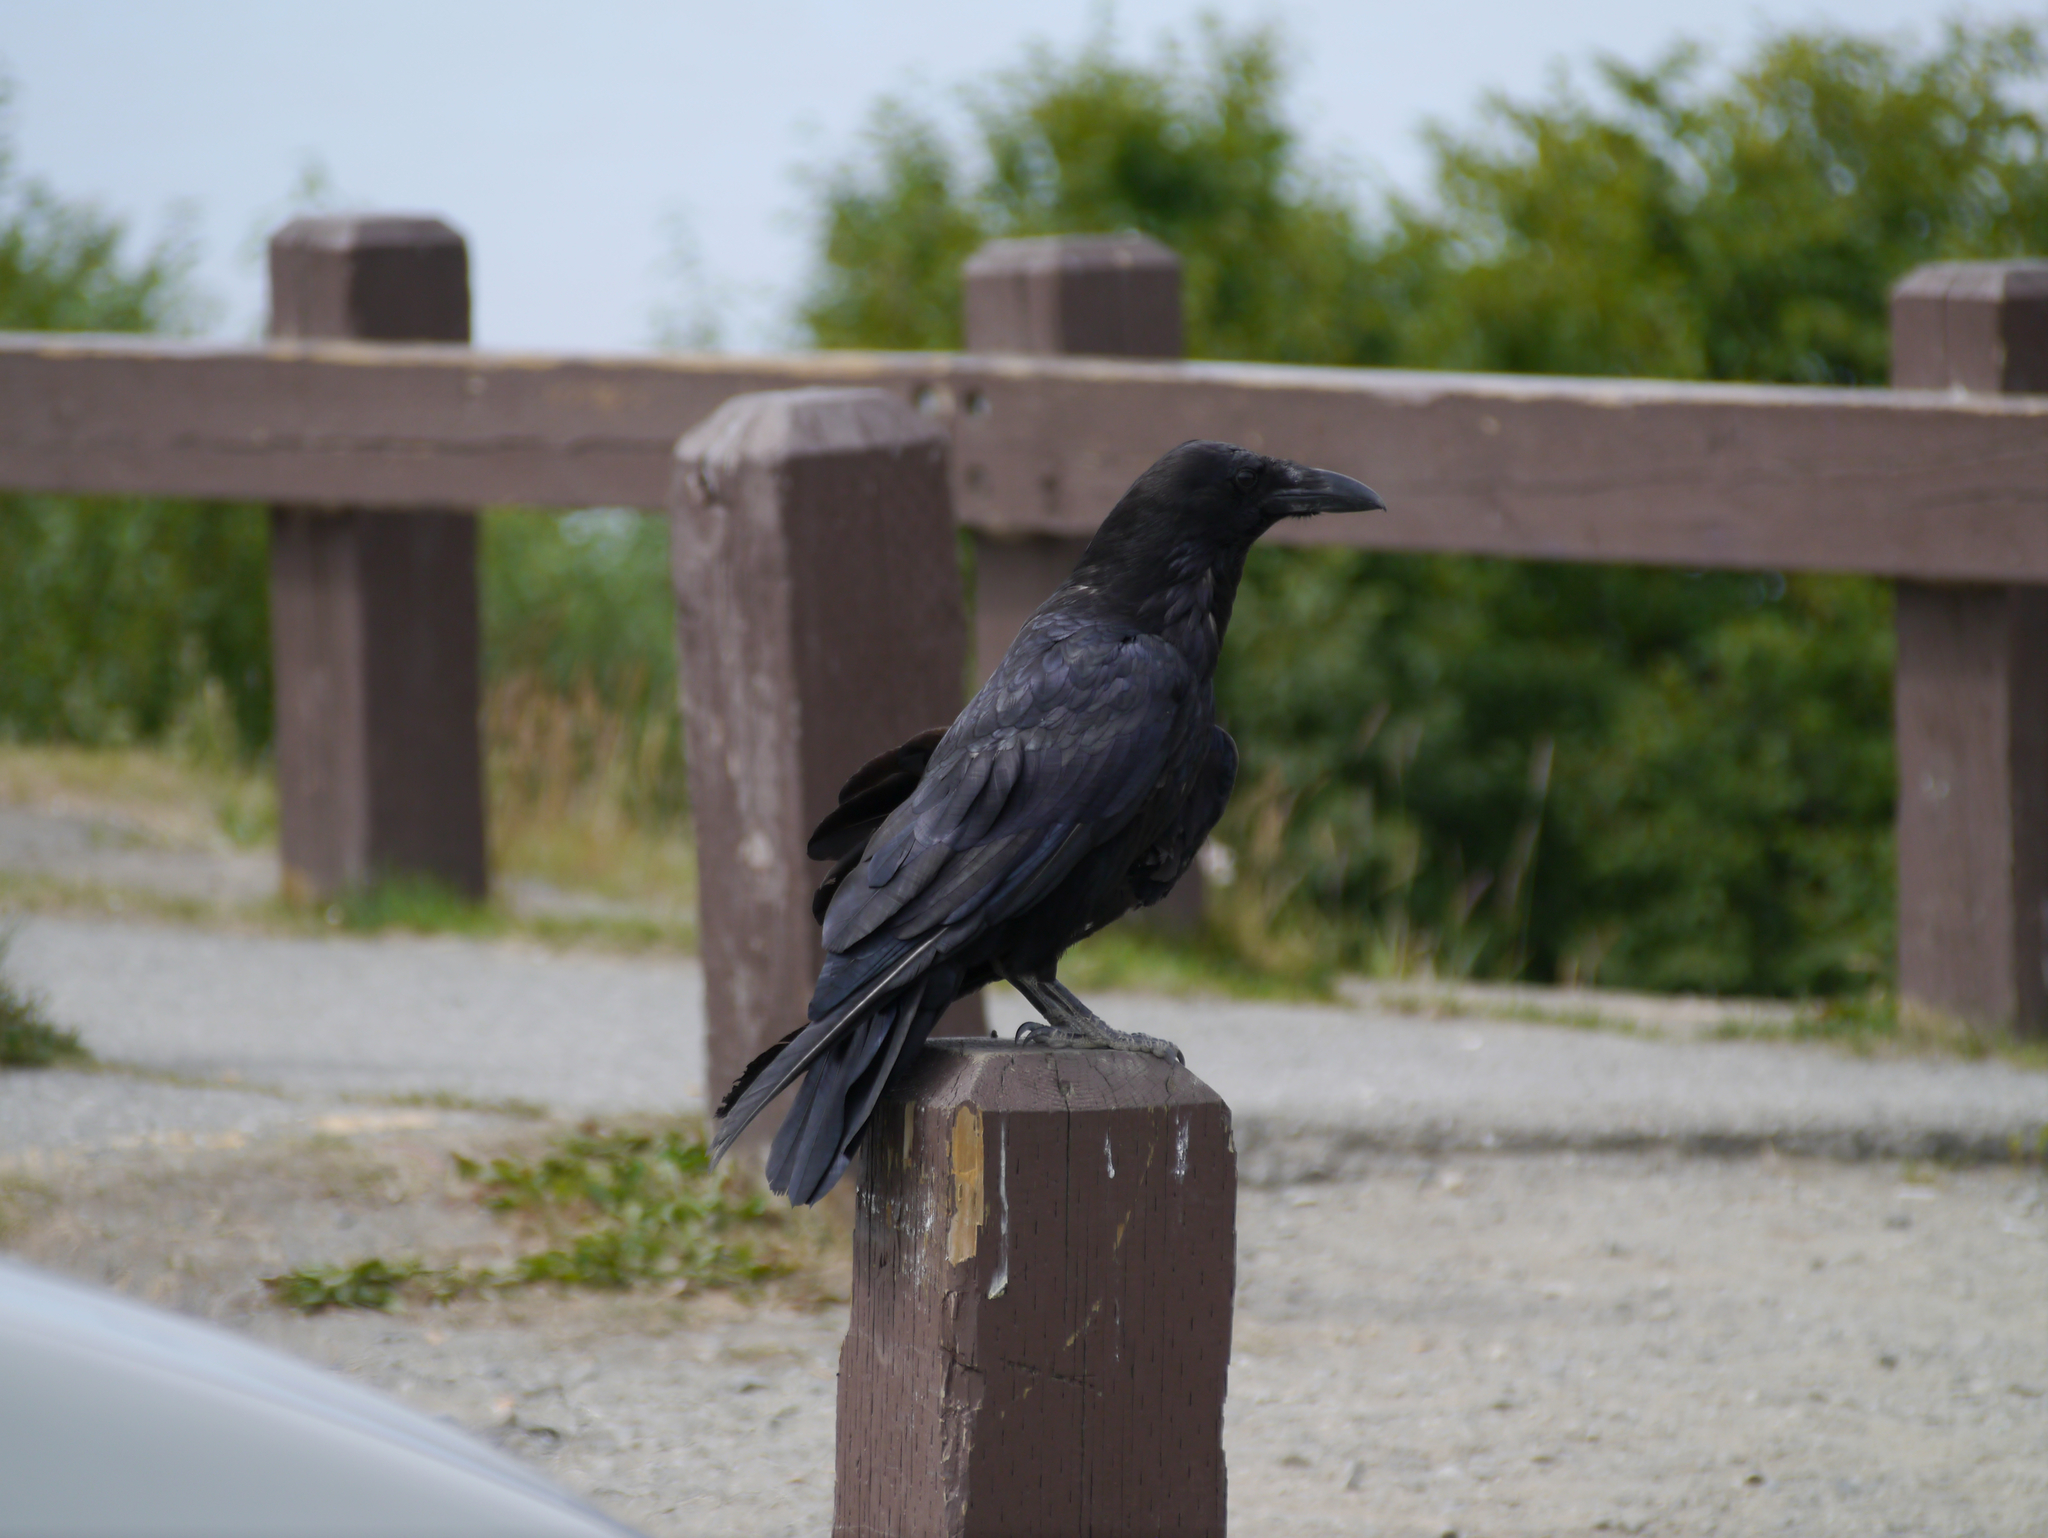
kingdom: Animalia
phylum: Chordata
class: Aves
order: Passeriformes
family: Corvidae
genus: Corvus
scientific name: Corvus corax
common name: Common raven
